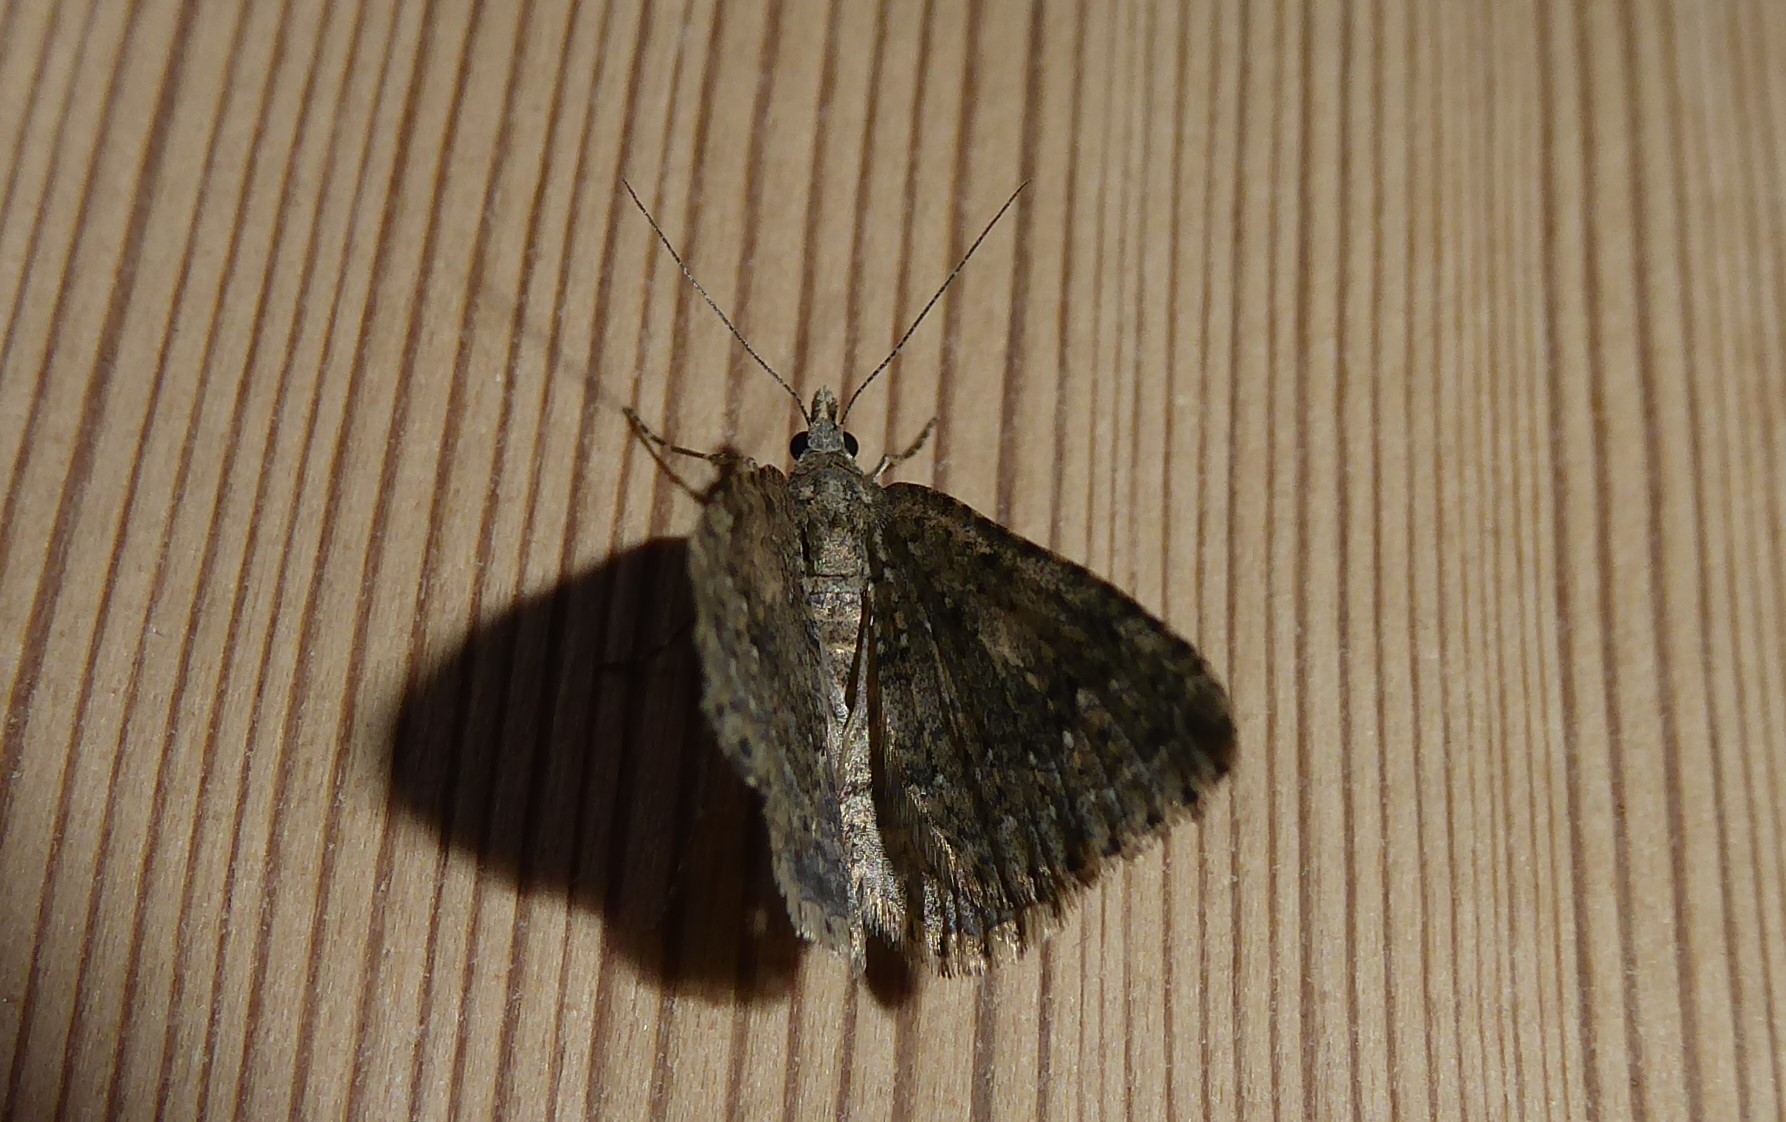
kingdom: Animalia
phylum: Arthropoda
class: Insecta
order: Lepidoptera
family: Geometridae
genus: Helastia
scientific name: Helastia corcularia
